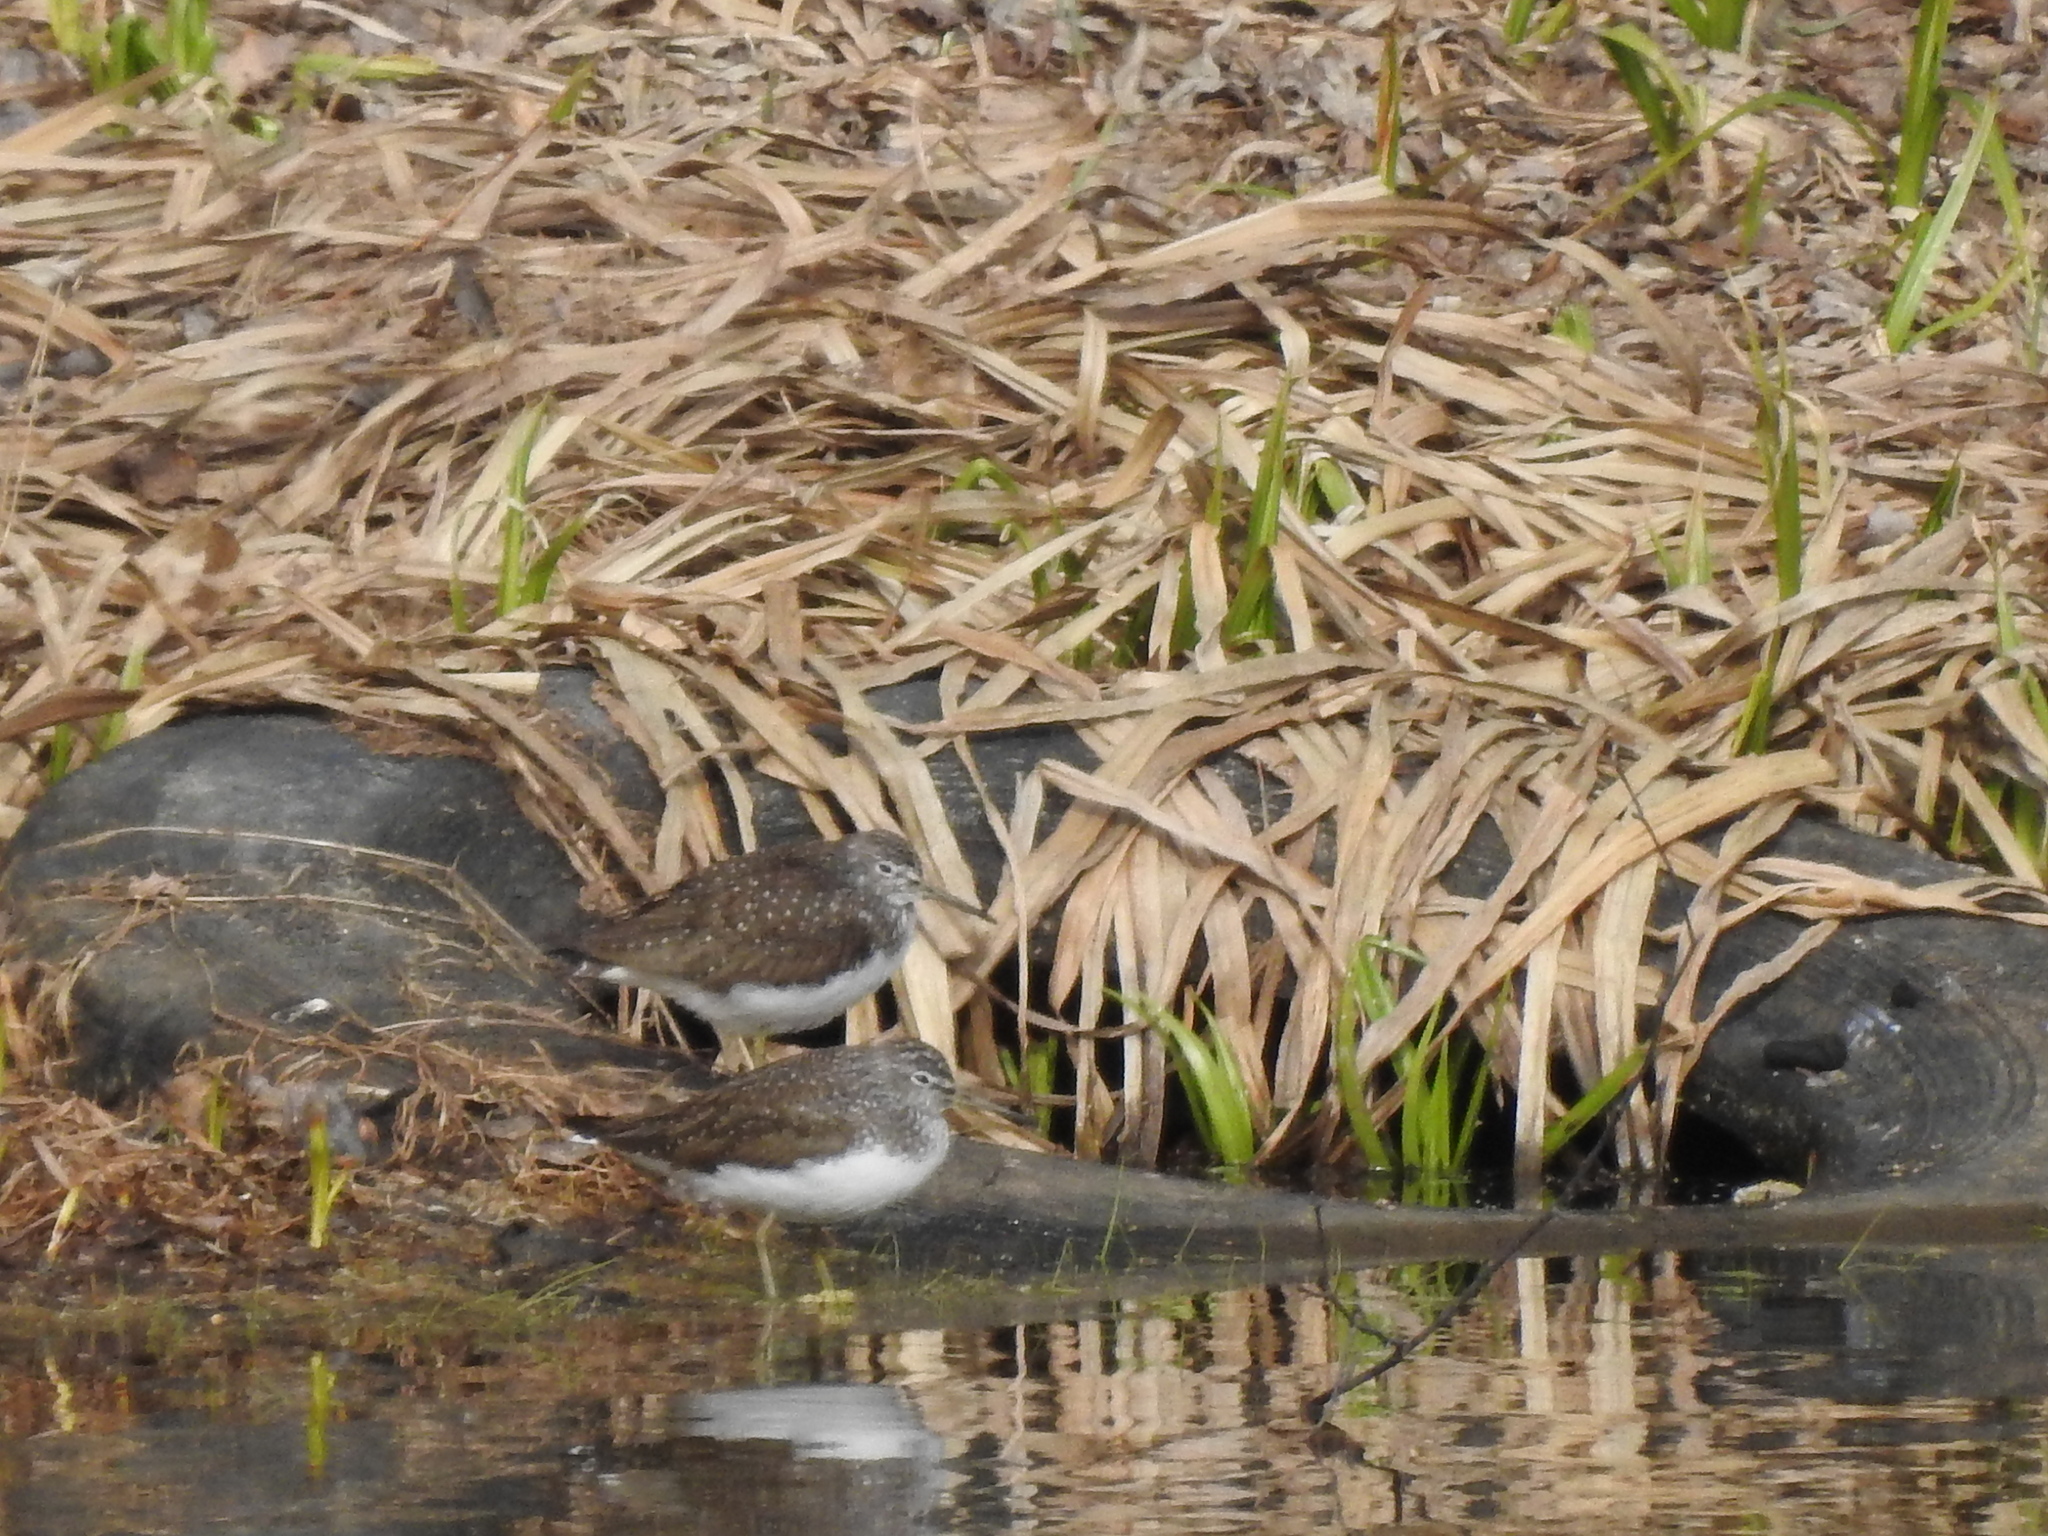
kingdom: Animalia
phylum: Chordata
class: Aves
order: Charadriiformes
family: Scolopacidae
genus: Tringa
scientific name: Tringa ochropus
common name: Green sandpiper
